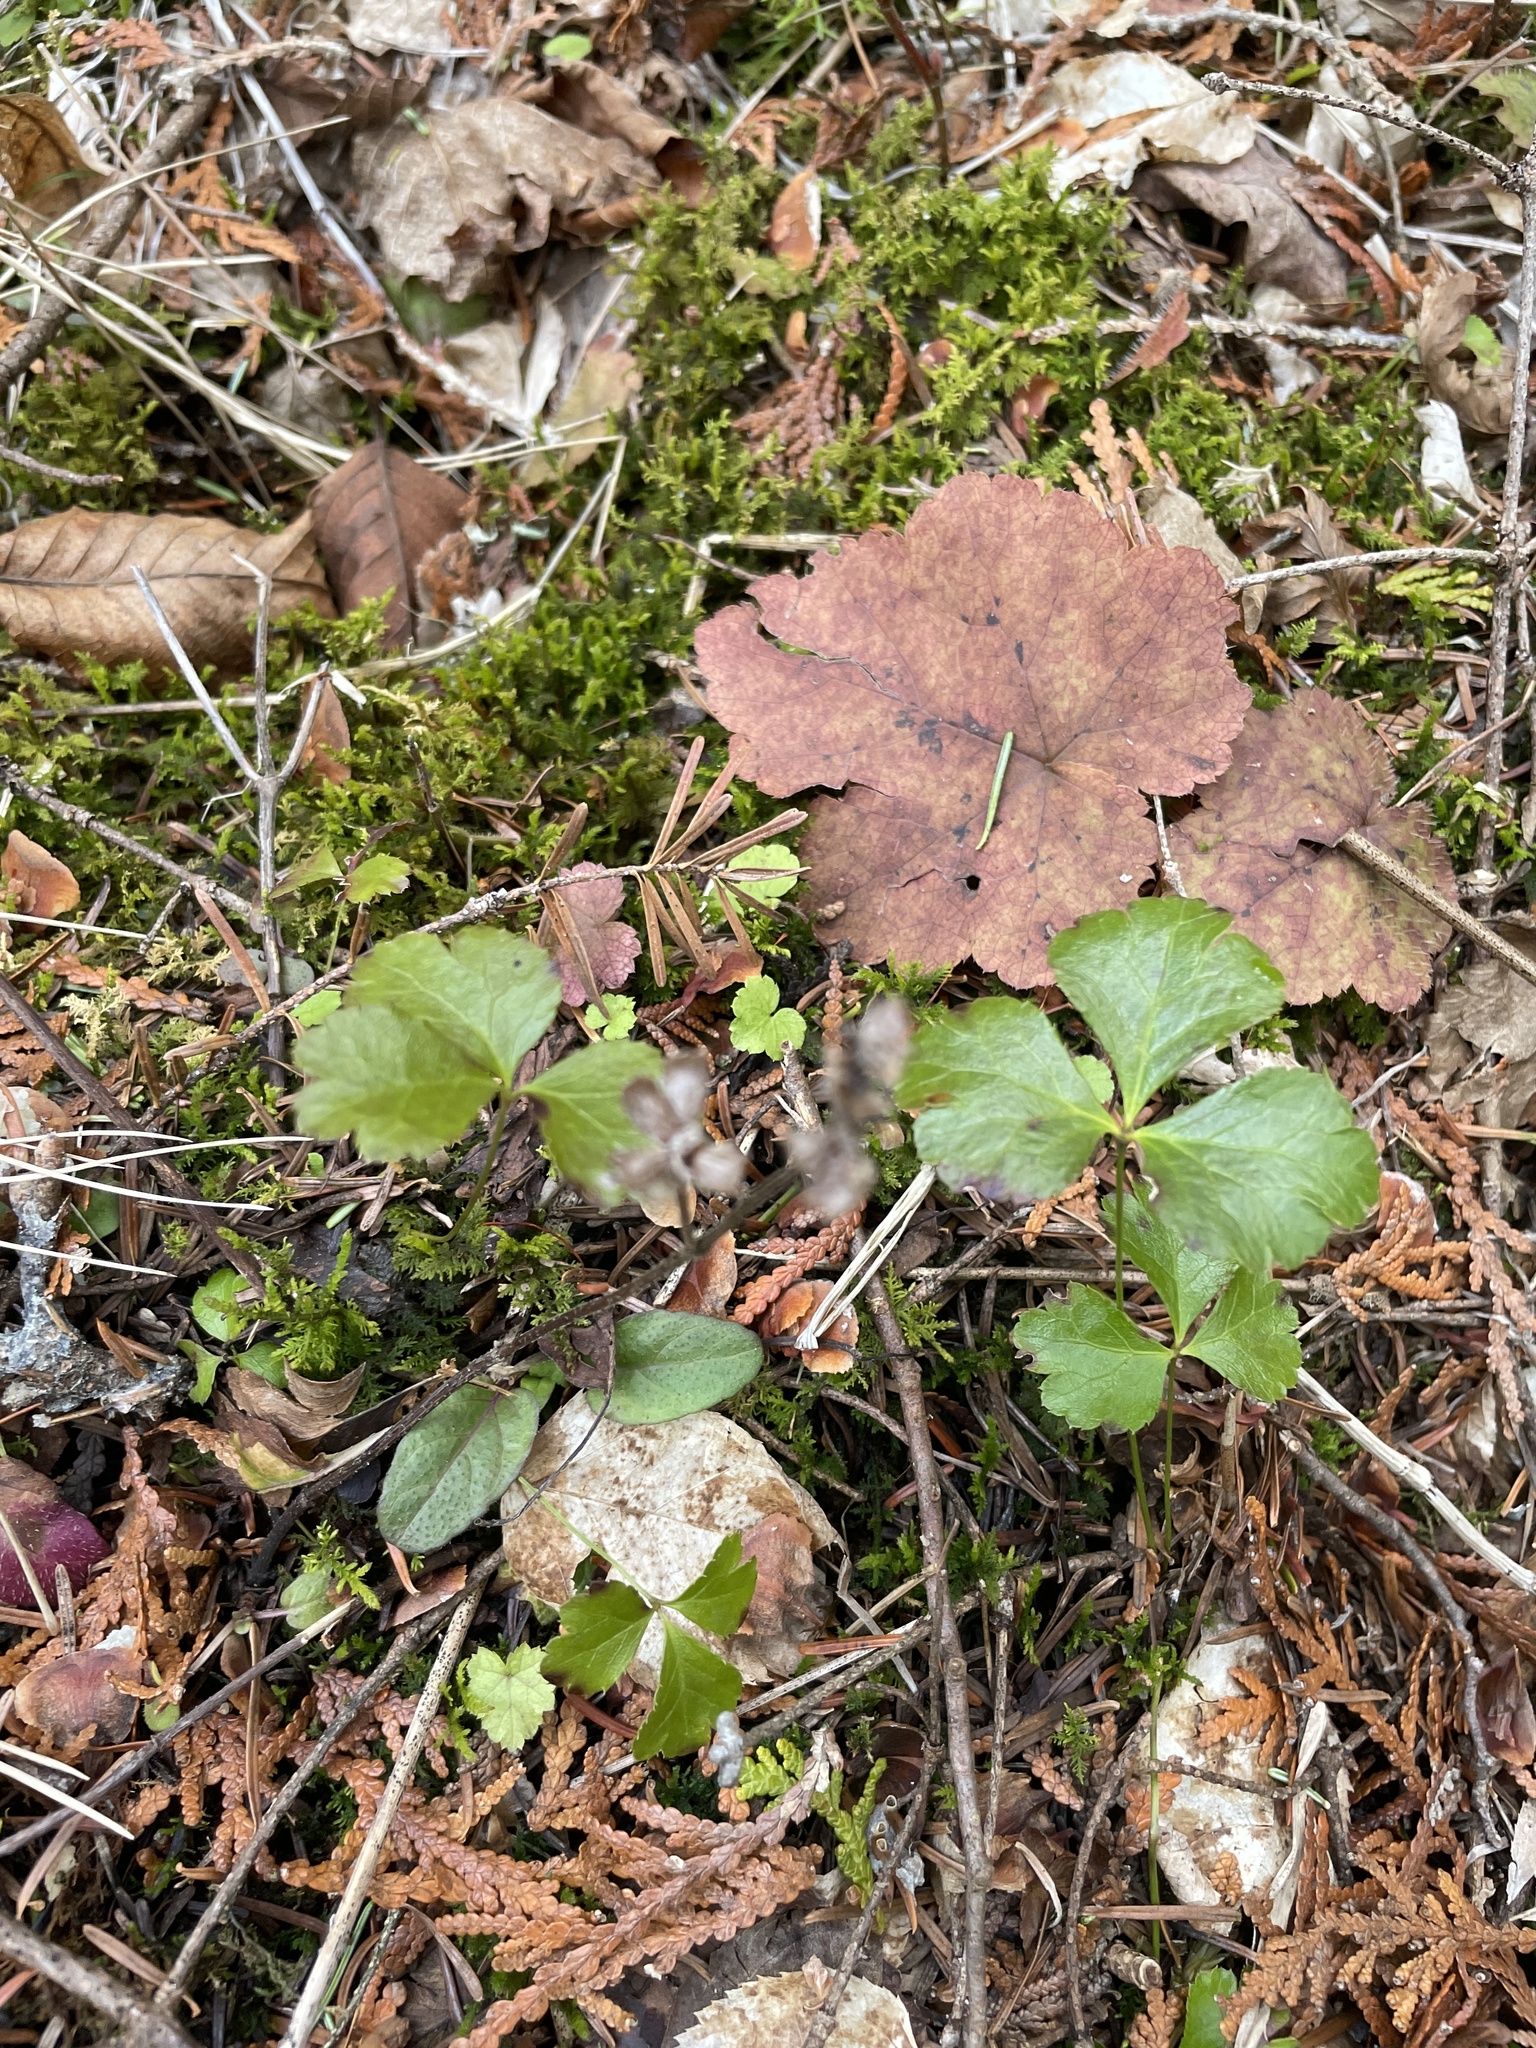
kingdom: Plantae
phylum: Tracheophyta
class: Magnoliopsida
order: Ranunculales
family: Ranunculaceae
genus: Coptis
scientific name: Coptis trifolia
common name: Canker-root
